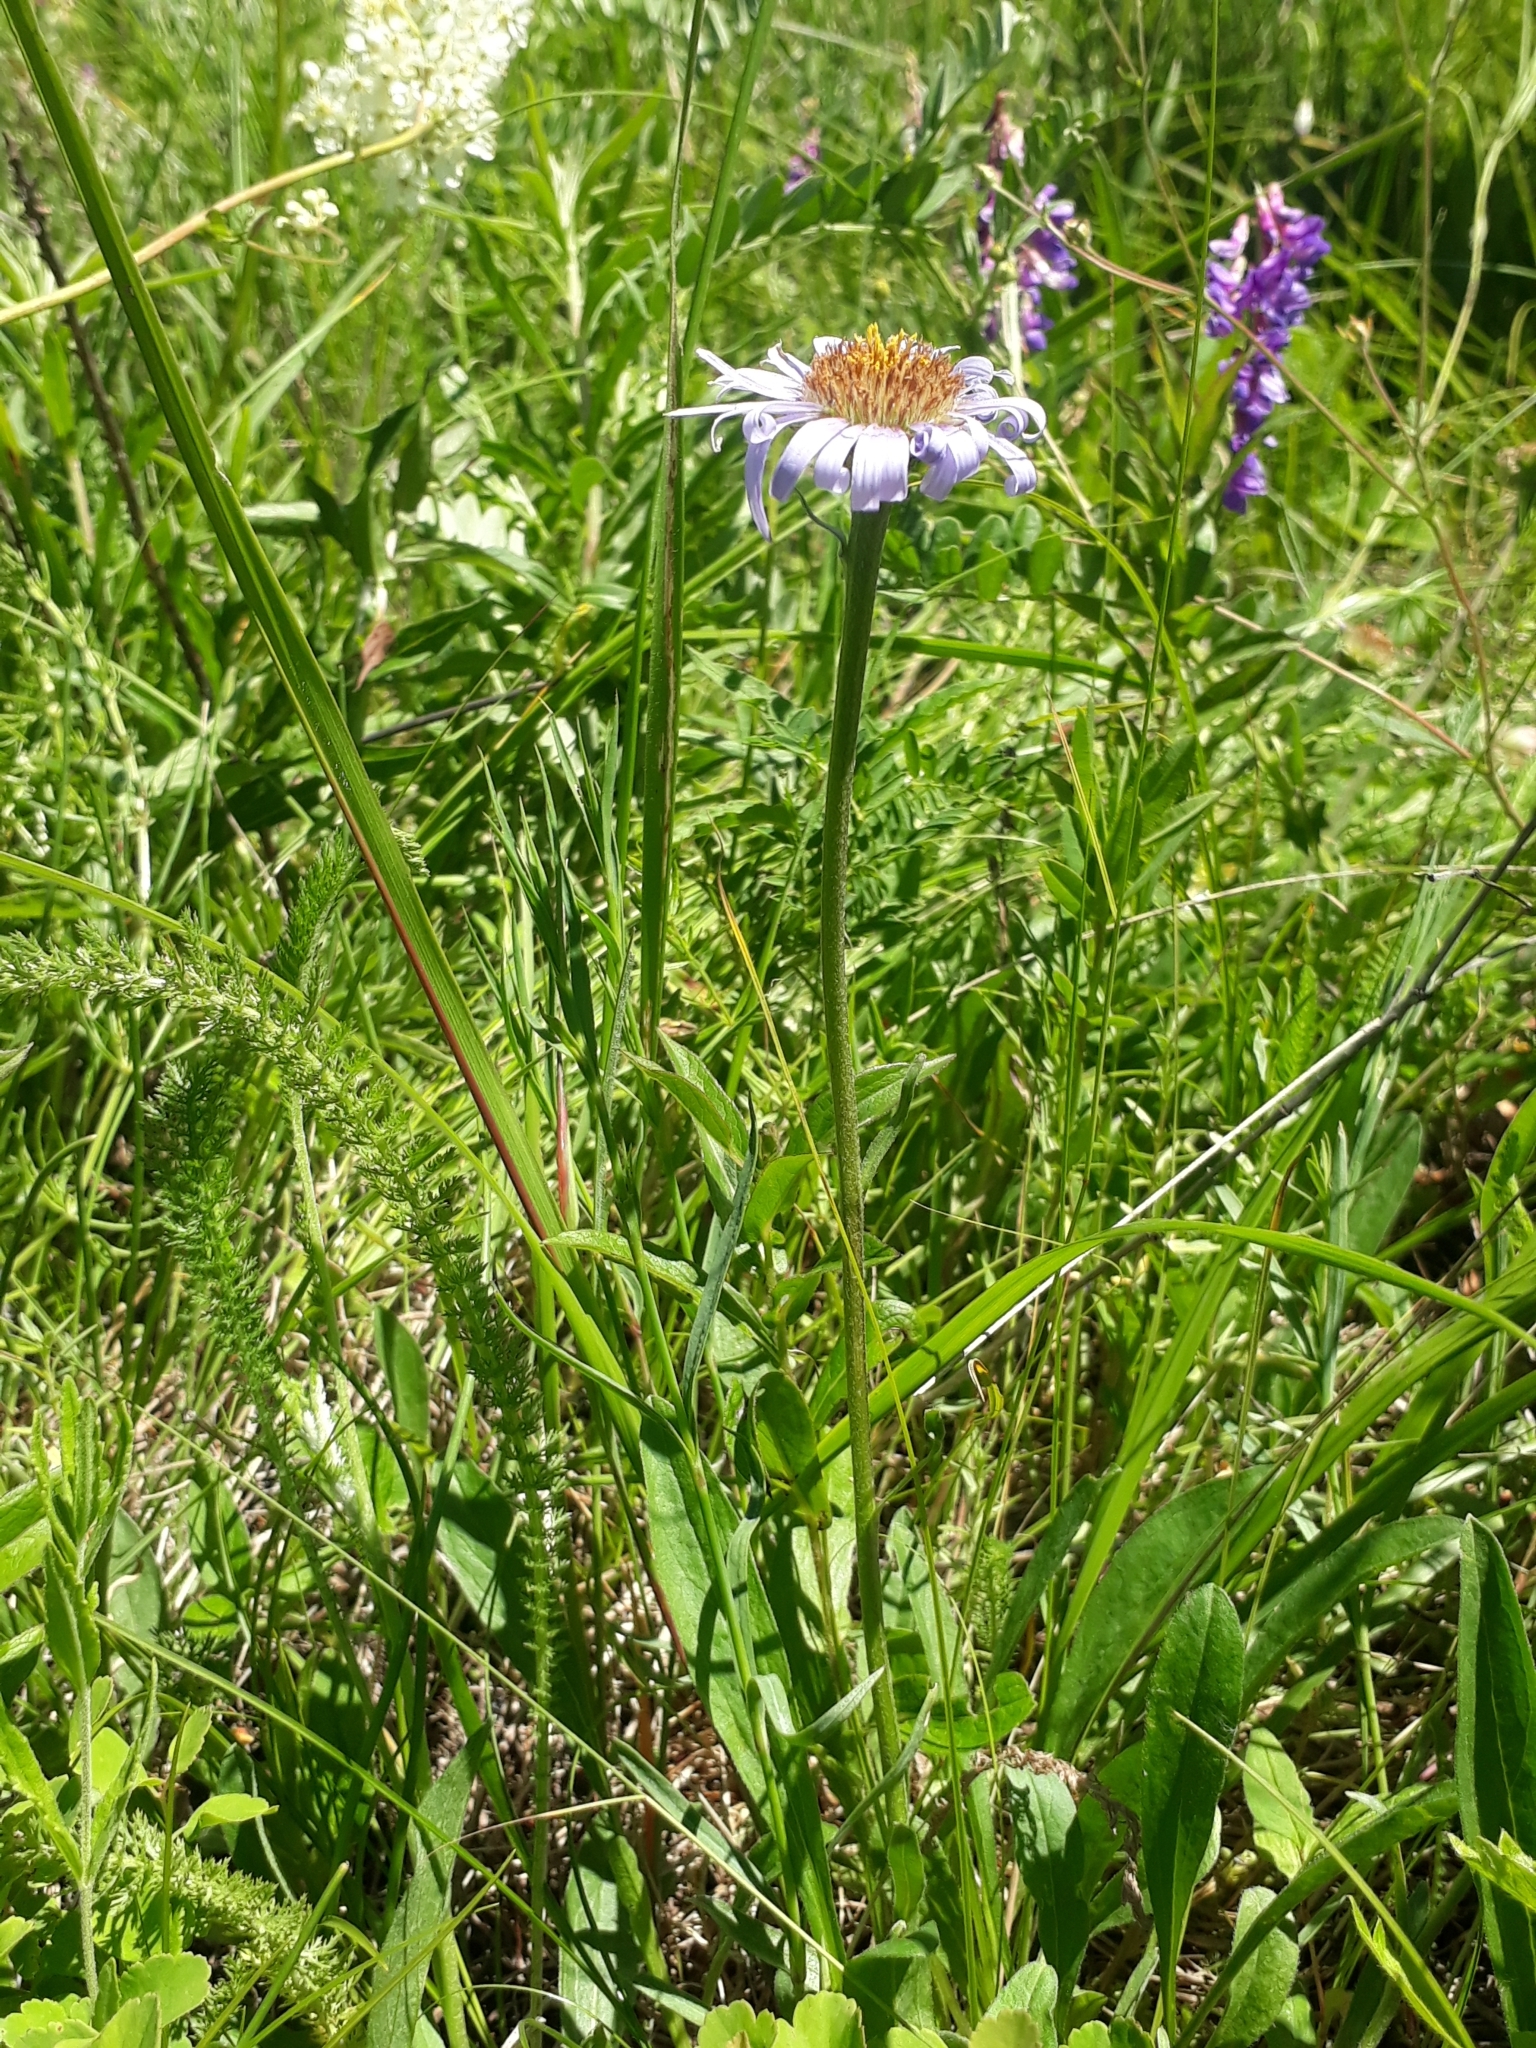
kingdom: Plantae
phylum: Tracheophyta
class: Magnoliopsida
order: Asterales
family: Asteraceae
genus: Aster
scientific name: Aster alpinus
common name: Alpine aster
